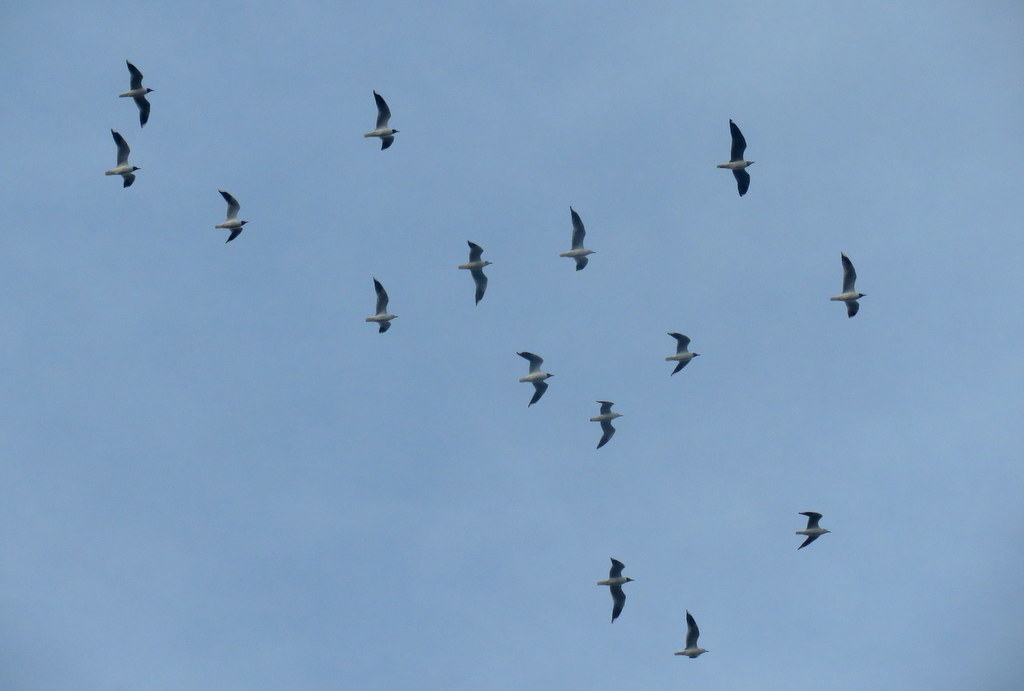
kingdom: Animalia
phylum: Chordata
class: Aves
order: Charadriiformes
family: Laridae
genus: Chroicocephalus
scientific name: Chroicocephalus maculipennis
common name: Brown-hooded gull
